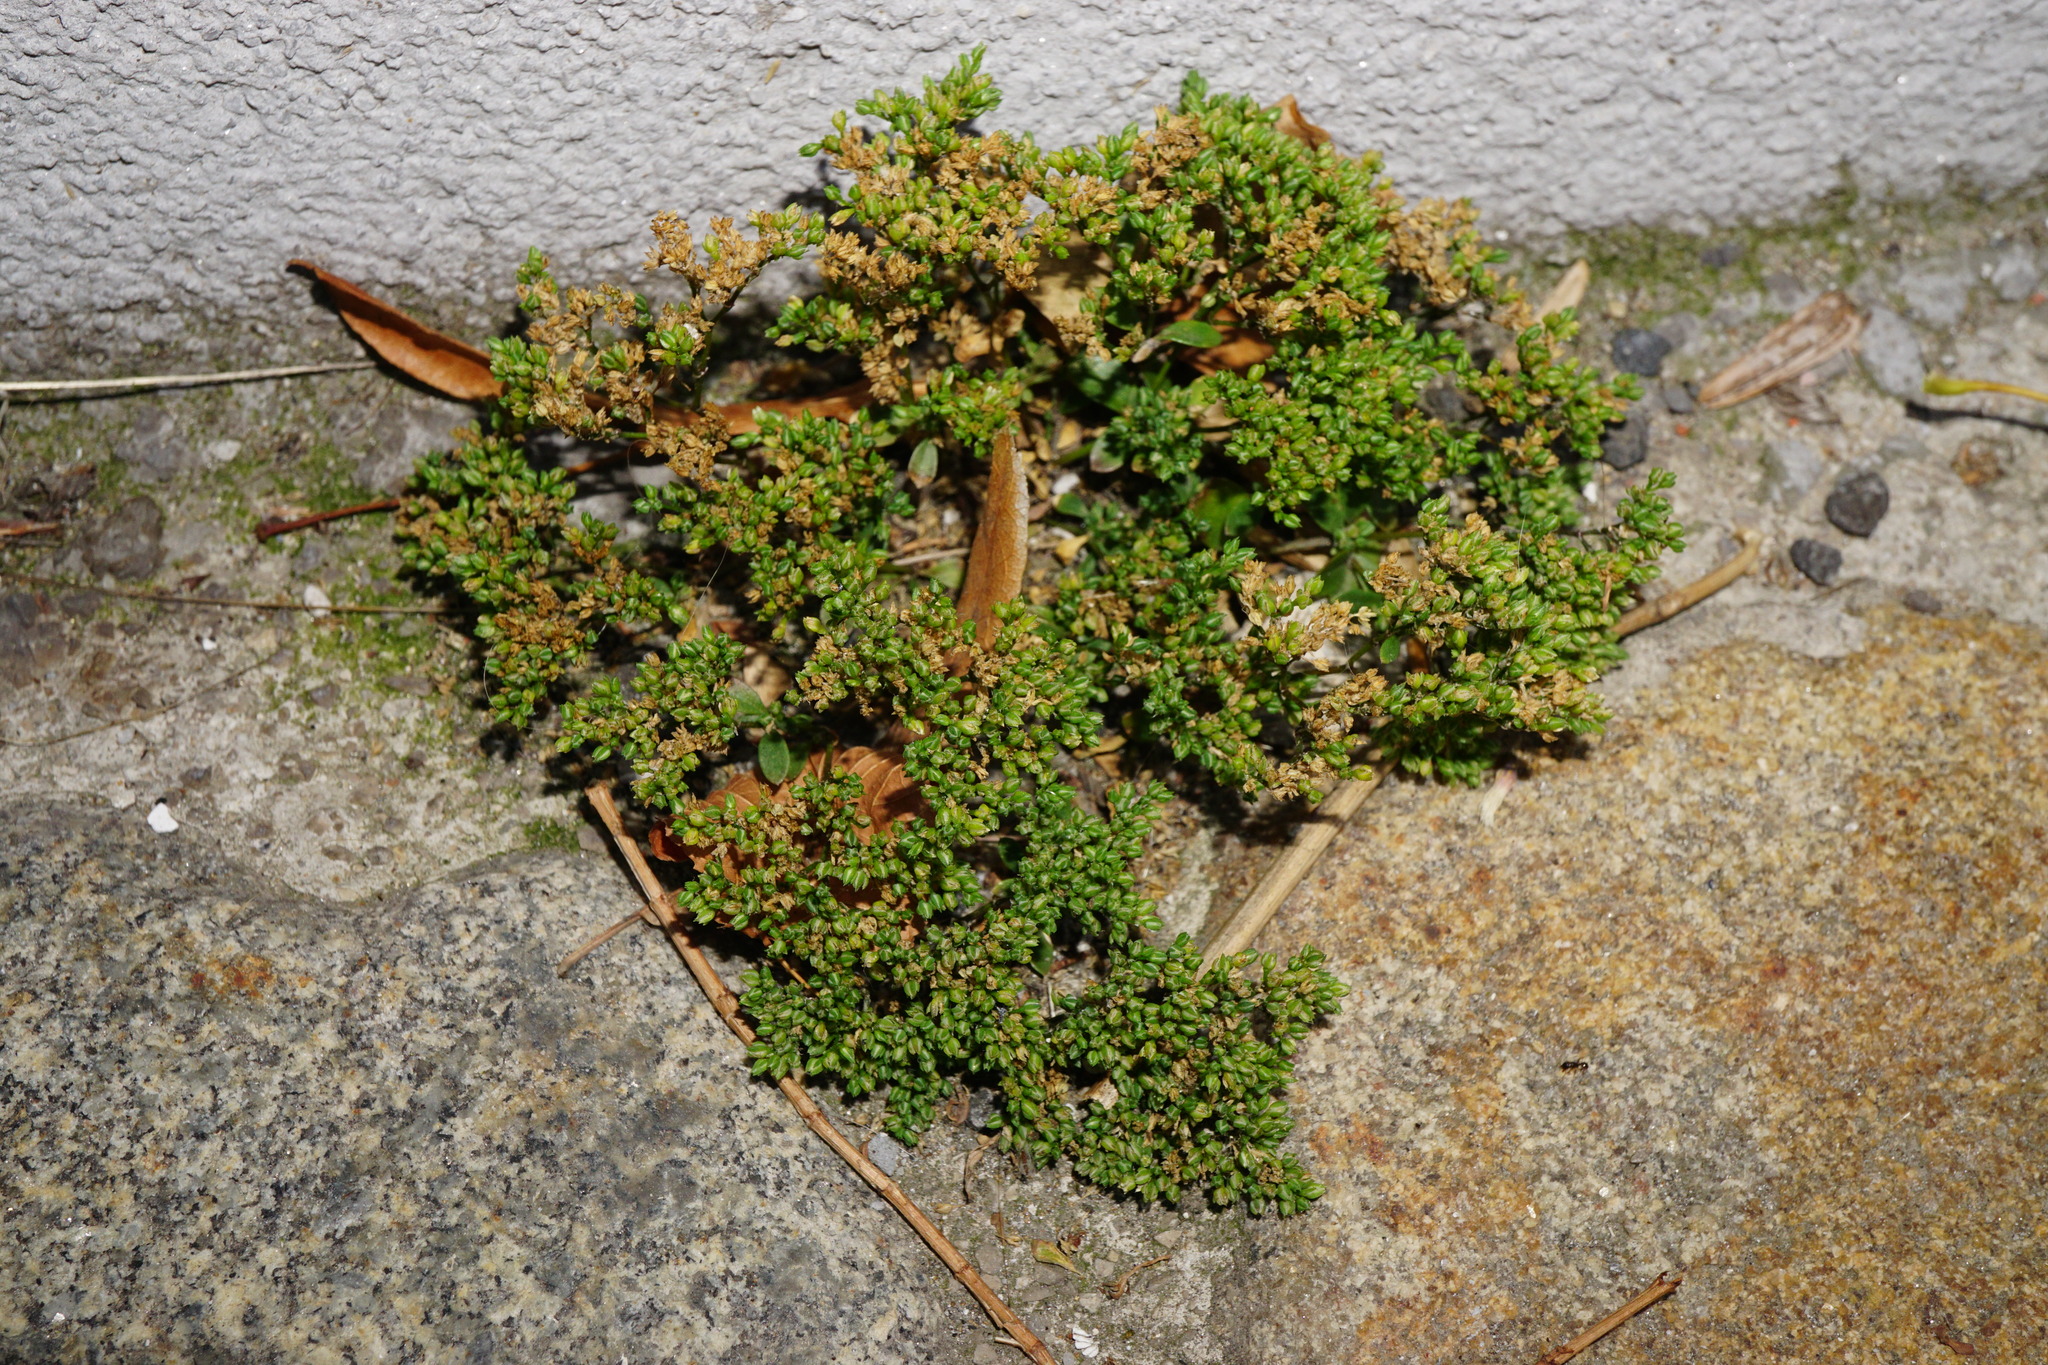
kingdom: Plantae
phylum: Tracheophyta
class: Magnoliopsida
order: Caryophyllales
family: Caryophyllaceae
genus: Polycarpon
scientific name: Polycarpon tetraphyllum
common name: Four-leaved all-seed
